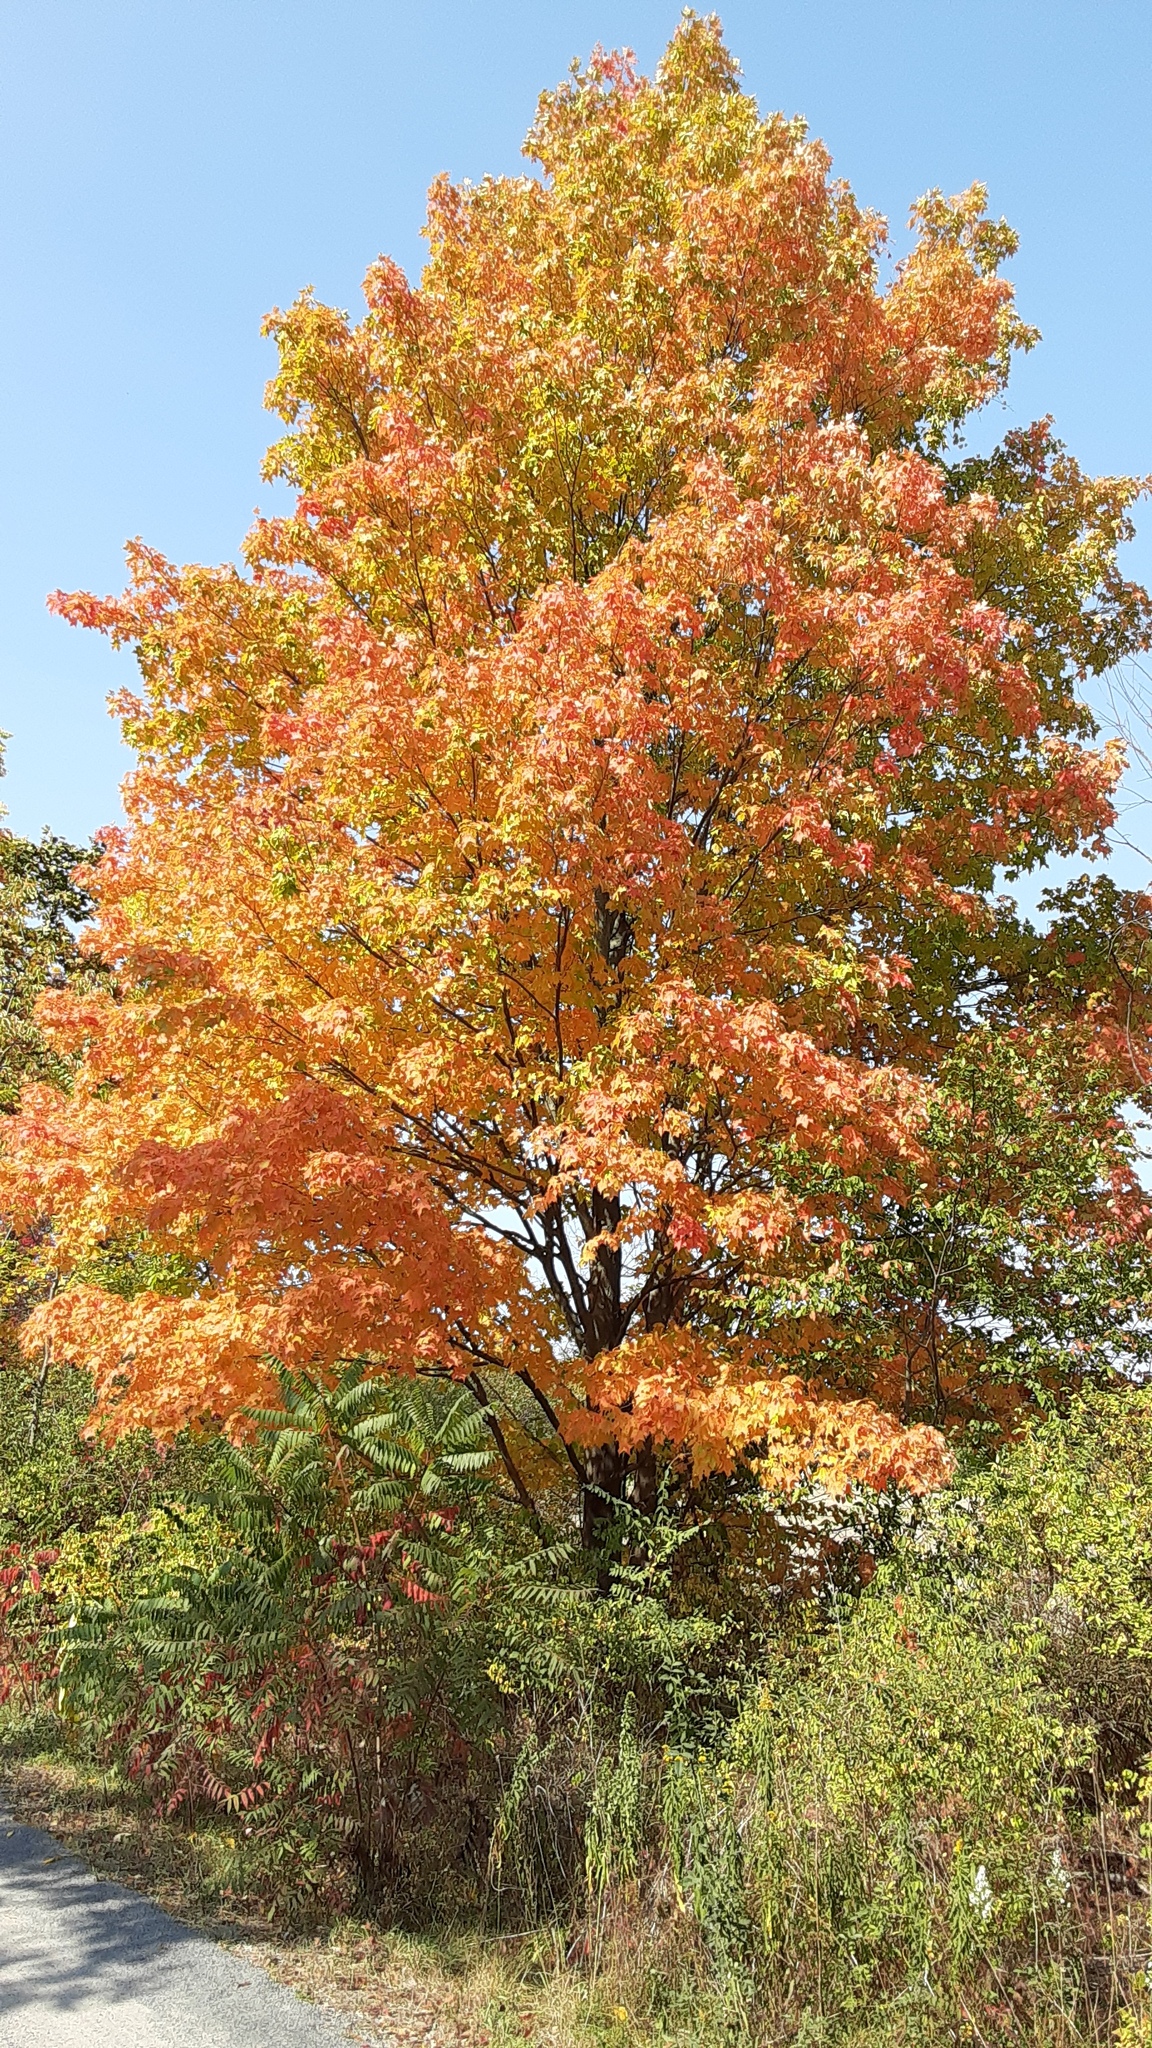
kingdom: Plantae
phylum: Tracheophyta
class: Magnoliopsida
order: Sapindales
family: Sapindaceae
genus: Acer
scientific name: Acer saccharum
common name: Sugar maple
